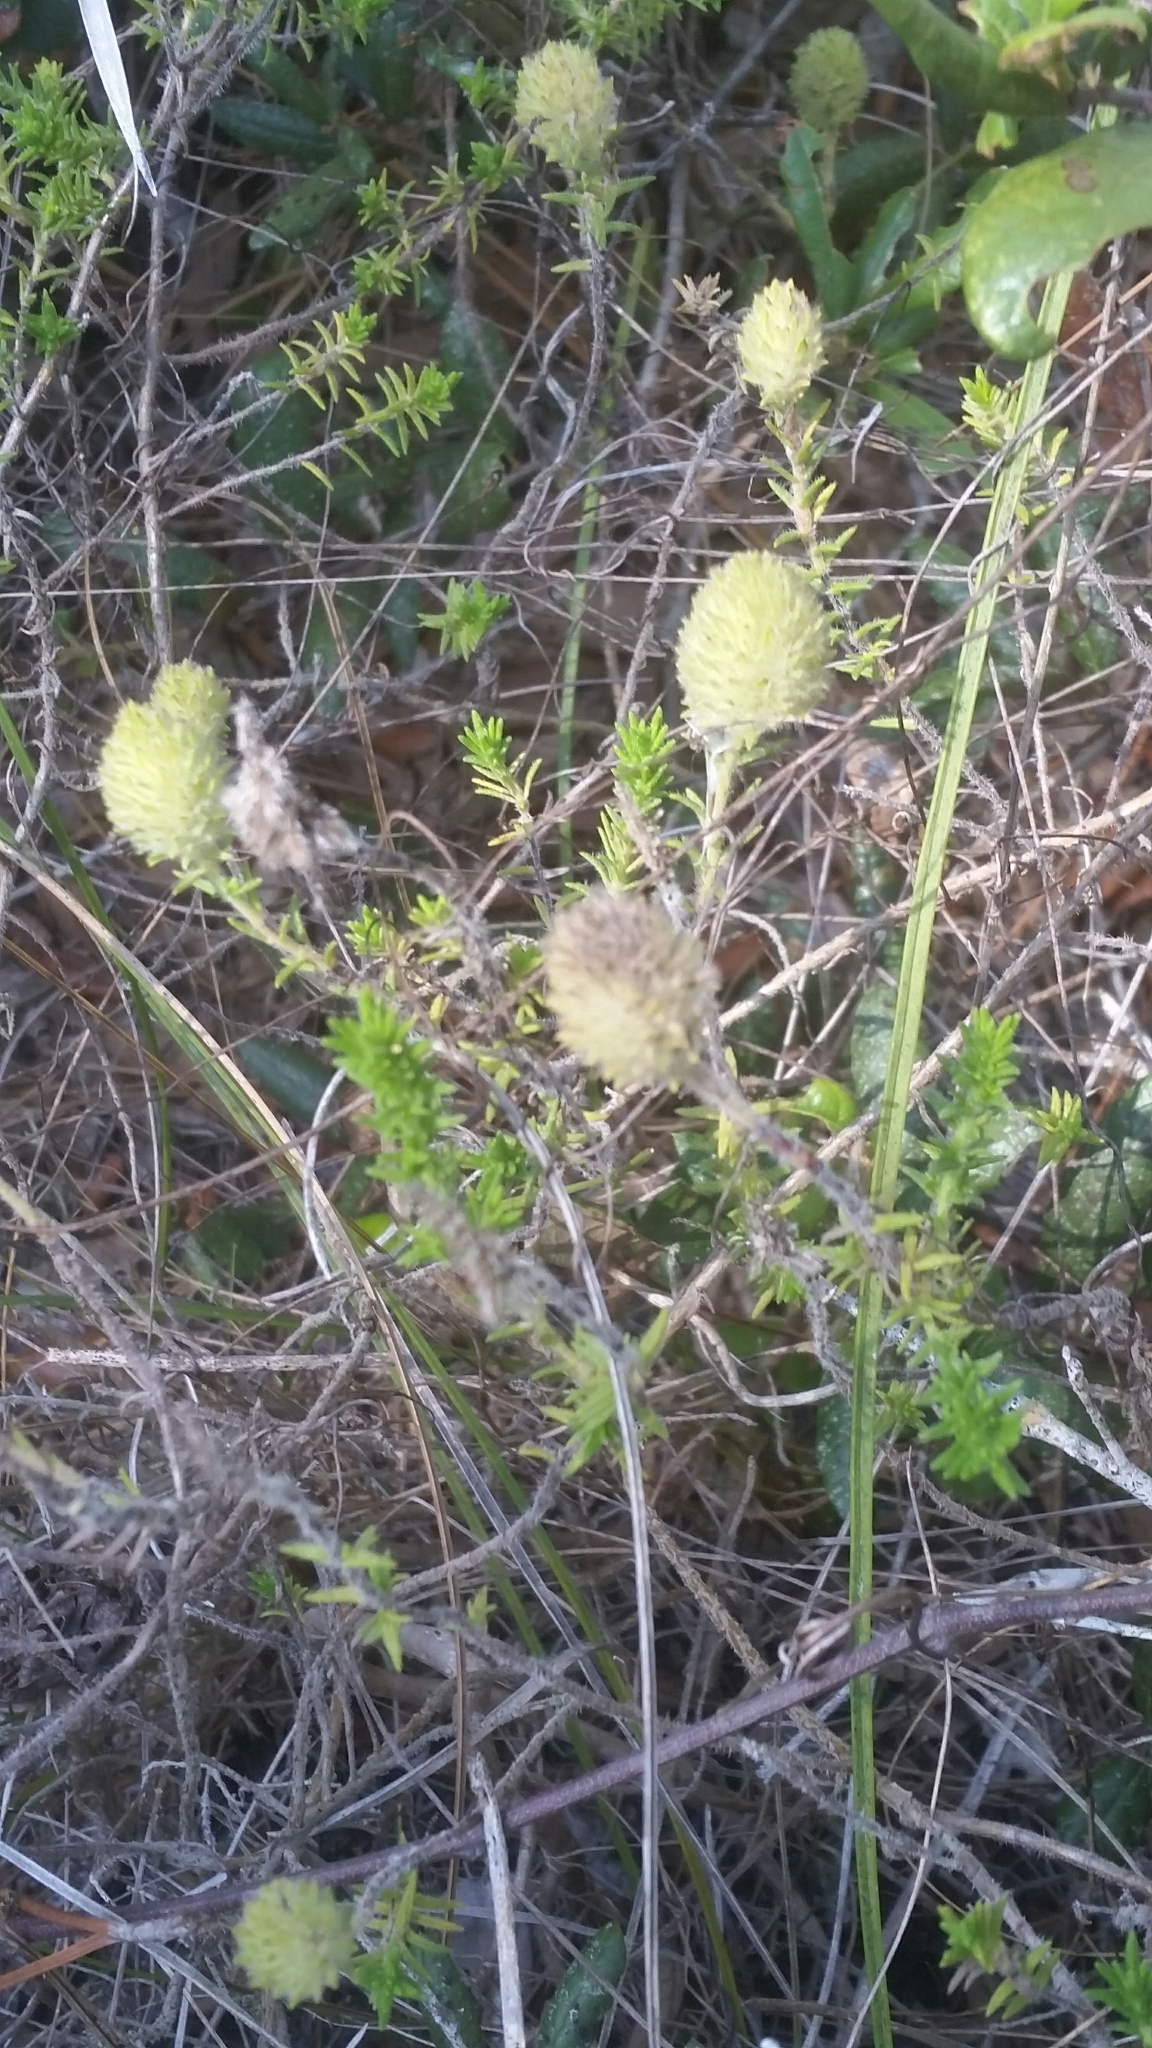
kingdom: Plantae
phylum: Tracheophyta
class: Magnoliopsida
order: Lamiales
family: Lamiaceae
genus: Piloblephis
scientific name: Piloblephis rigida
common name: Wild pennyroyal
